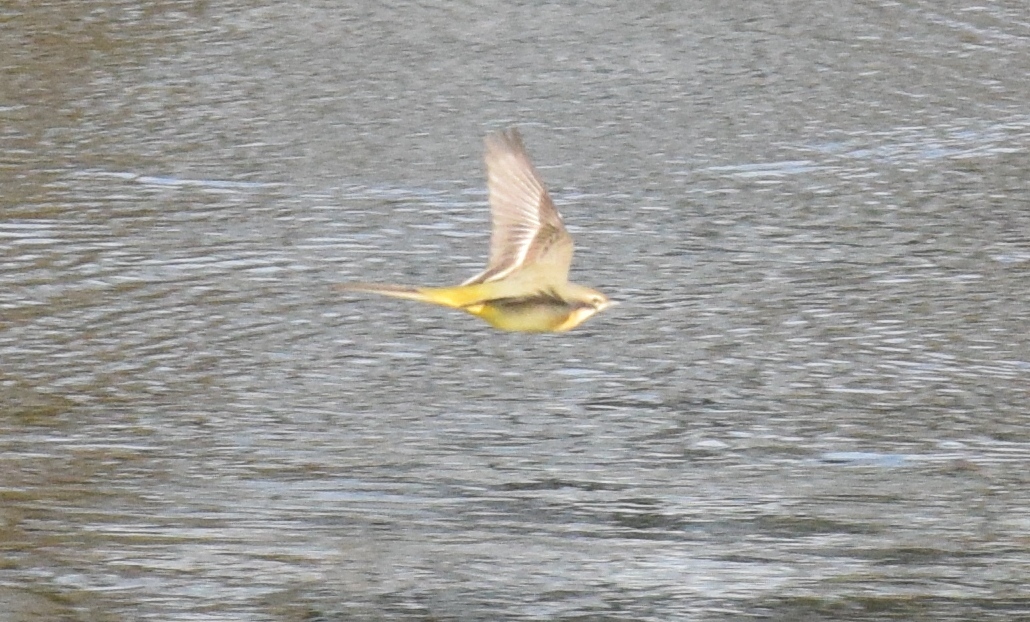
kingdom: Animalia
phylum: Chordata
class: Aves
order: Passeriformes
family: Motacillidae
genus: Motacilla
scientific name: Motacilla cinerea
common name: Grey wagtail
